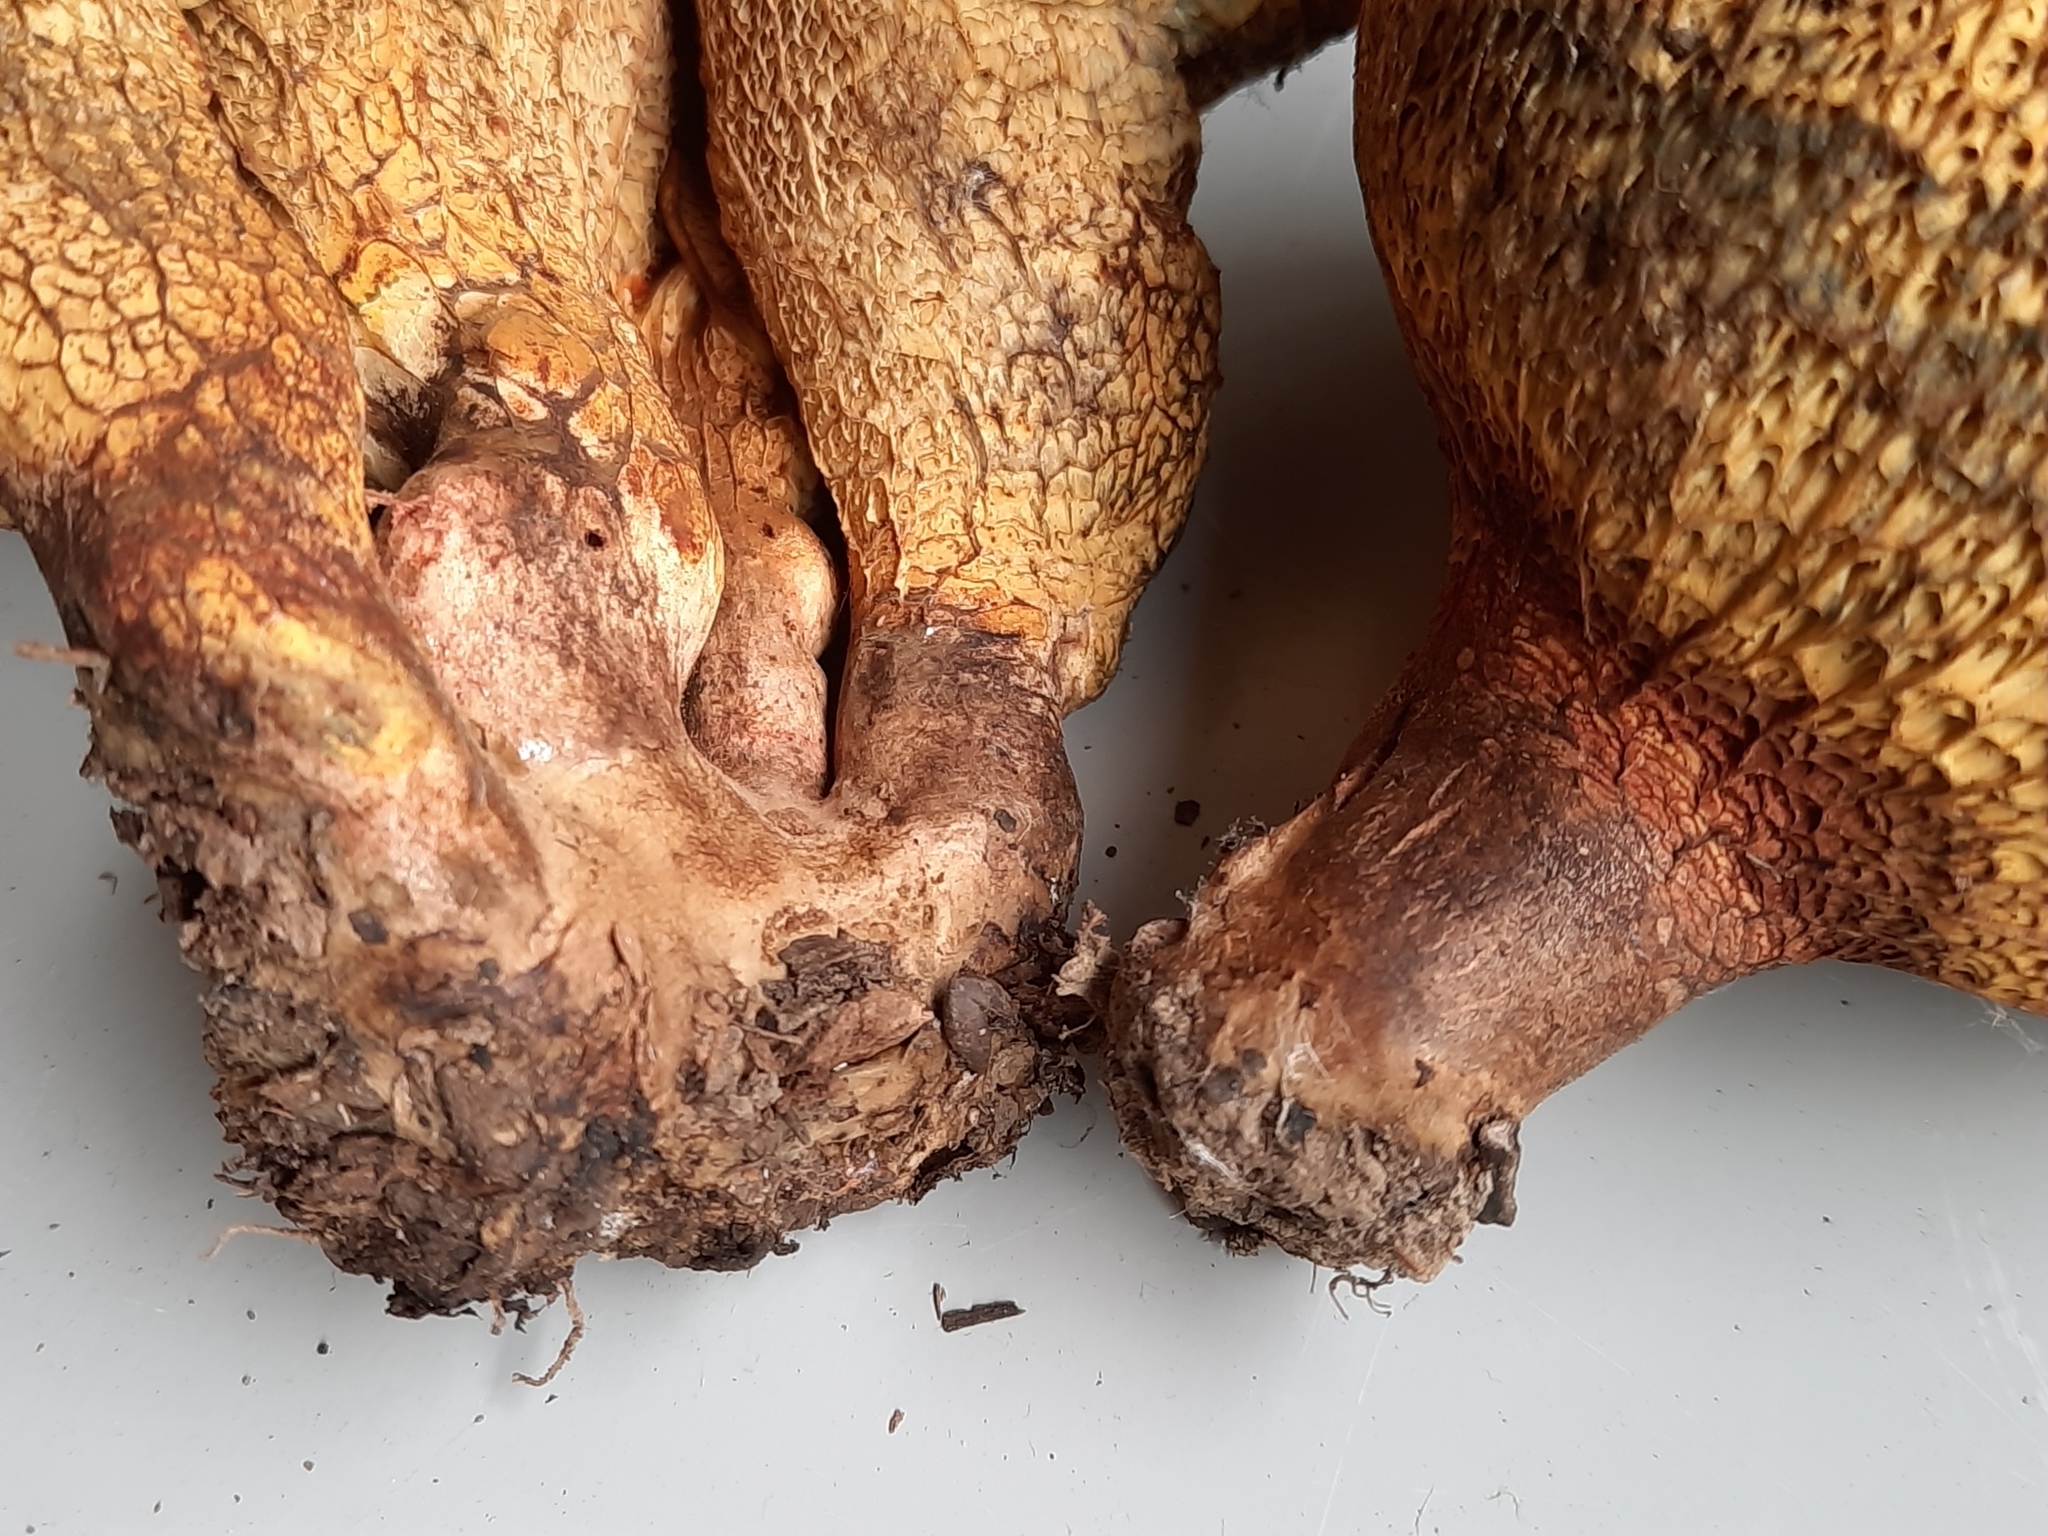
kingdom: Fungi
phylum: Basidiomycota
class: Agaricomycetes
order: Boletales
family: Boletinellaceae
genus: Boletinellus
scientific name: Boletinellus merulioides
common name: Ash tree bolete
